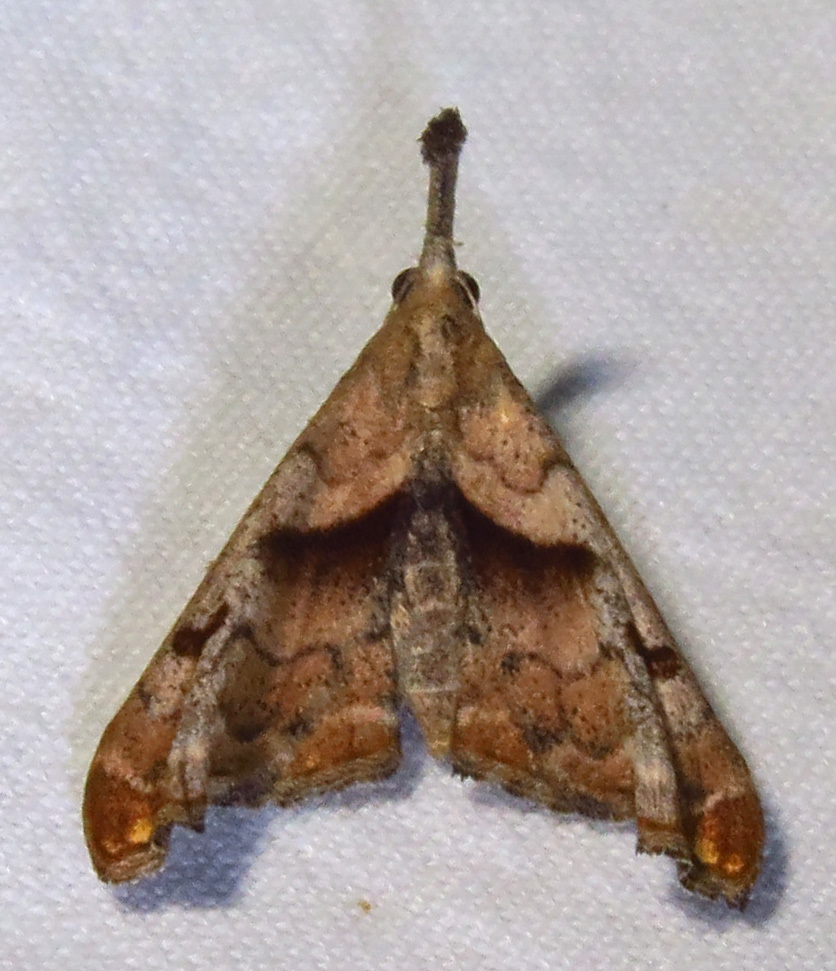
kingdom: Animalia
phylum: Arthropoda
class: Insecta
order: Lepidoptera
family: Erebidae
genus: Palthis
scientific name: Palthis angulalis
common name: Dark-spotted palthis moth
